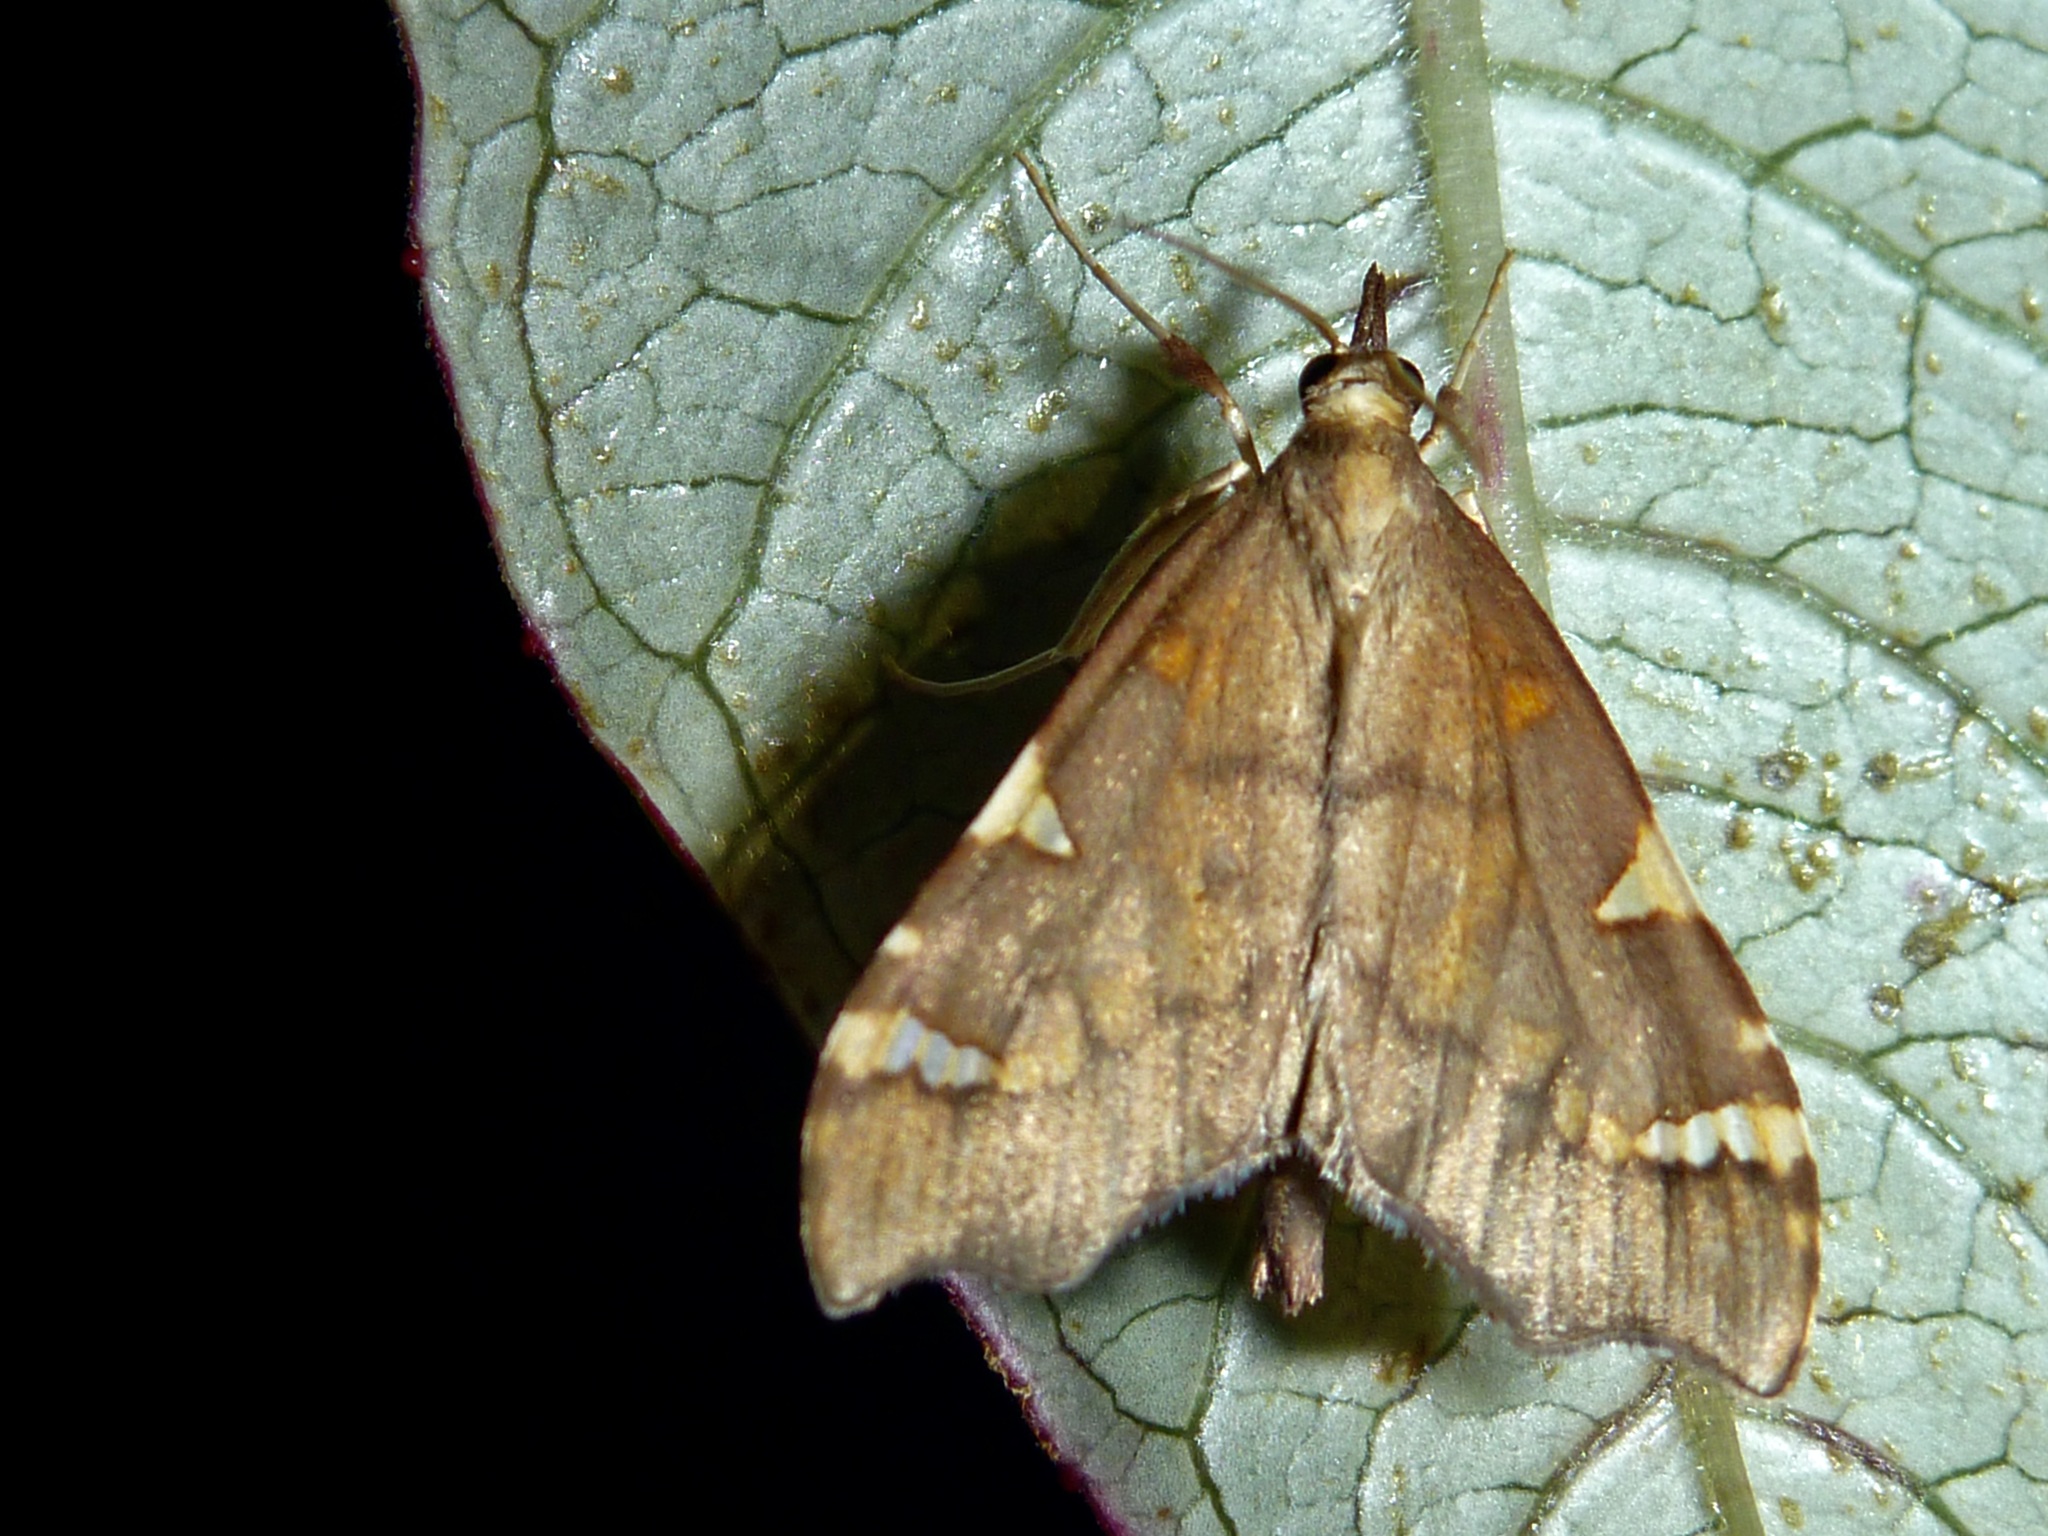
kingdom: Animalia
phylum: Arthropoda
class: Insecta
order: Lepidoptera
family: Crambidae
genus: Deana
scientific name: Deana hybreasalis
